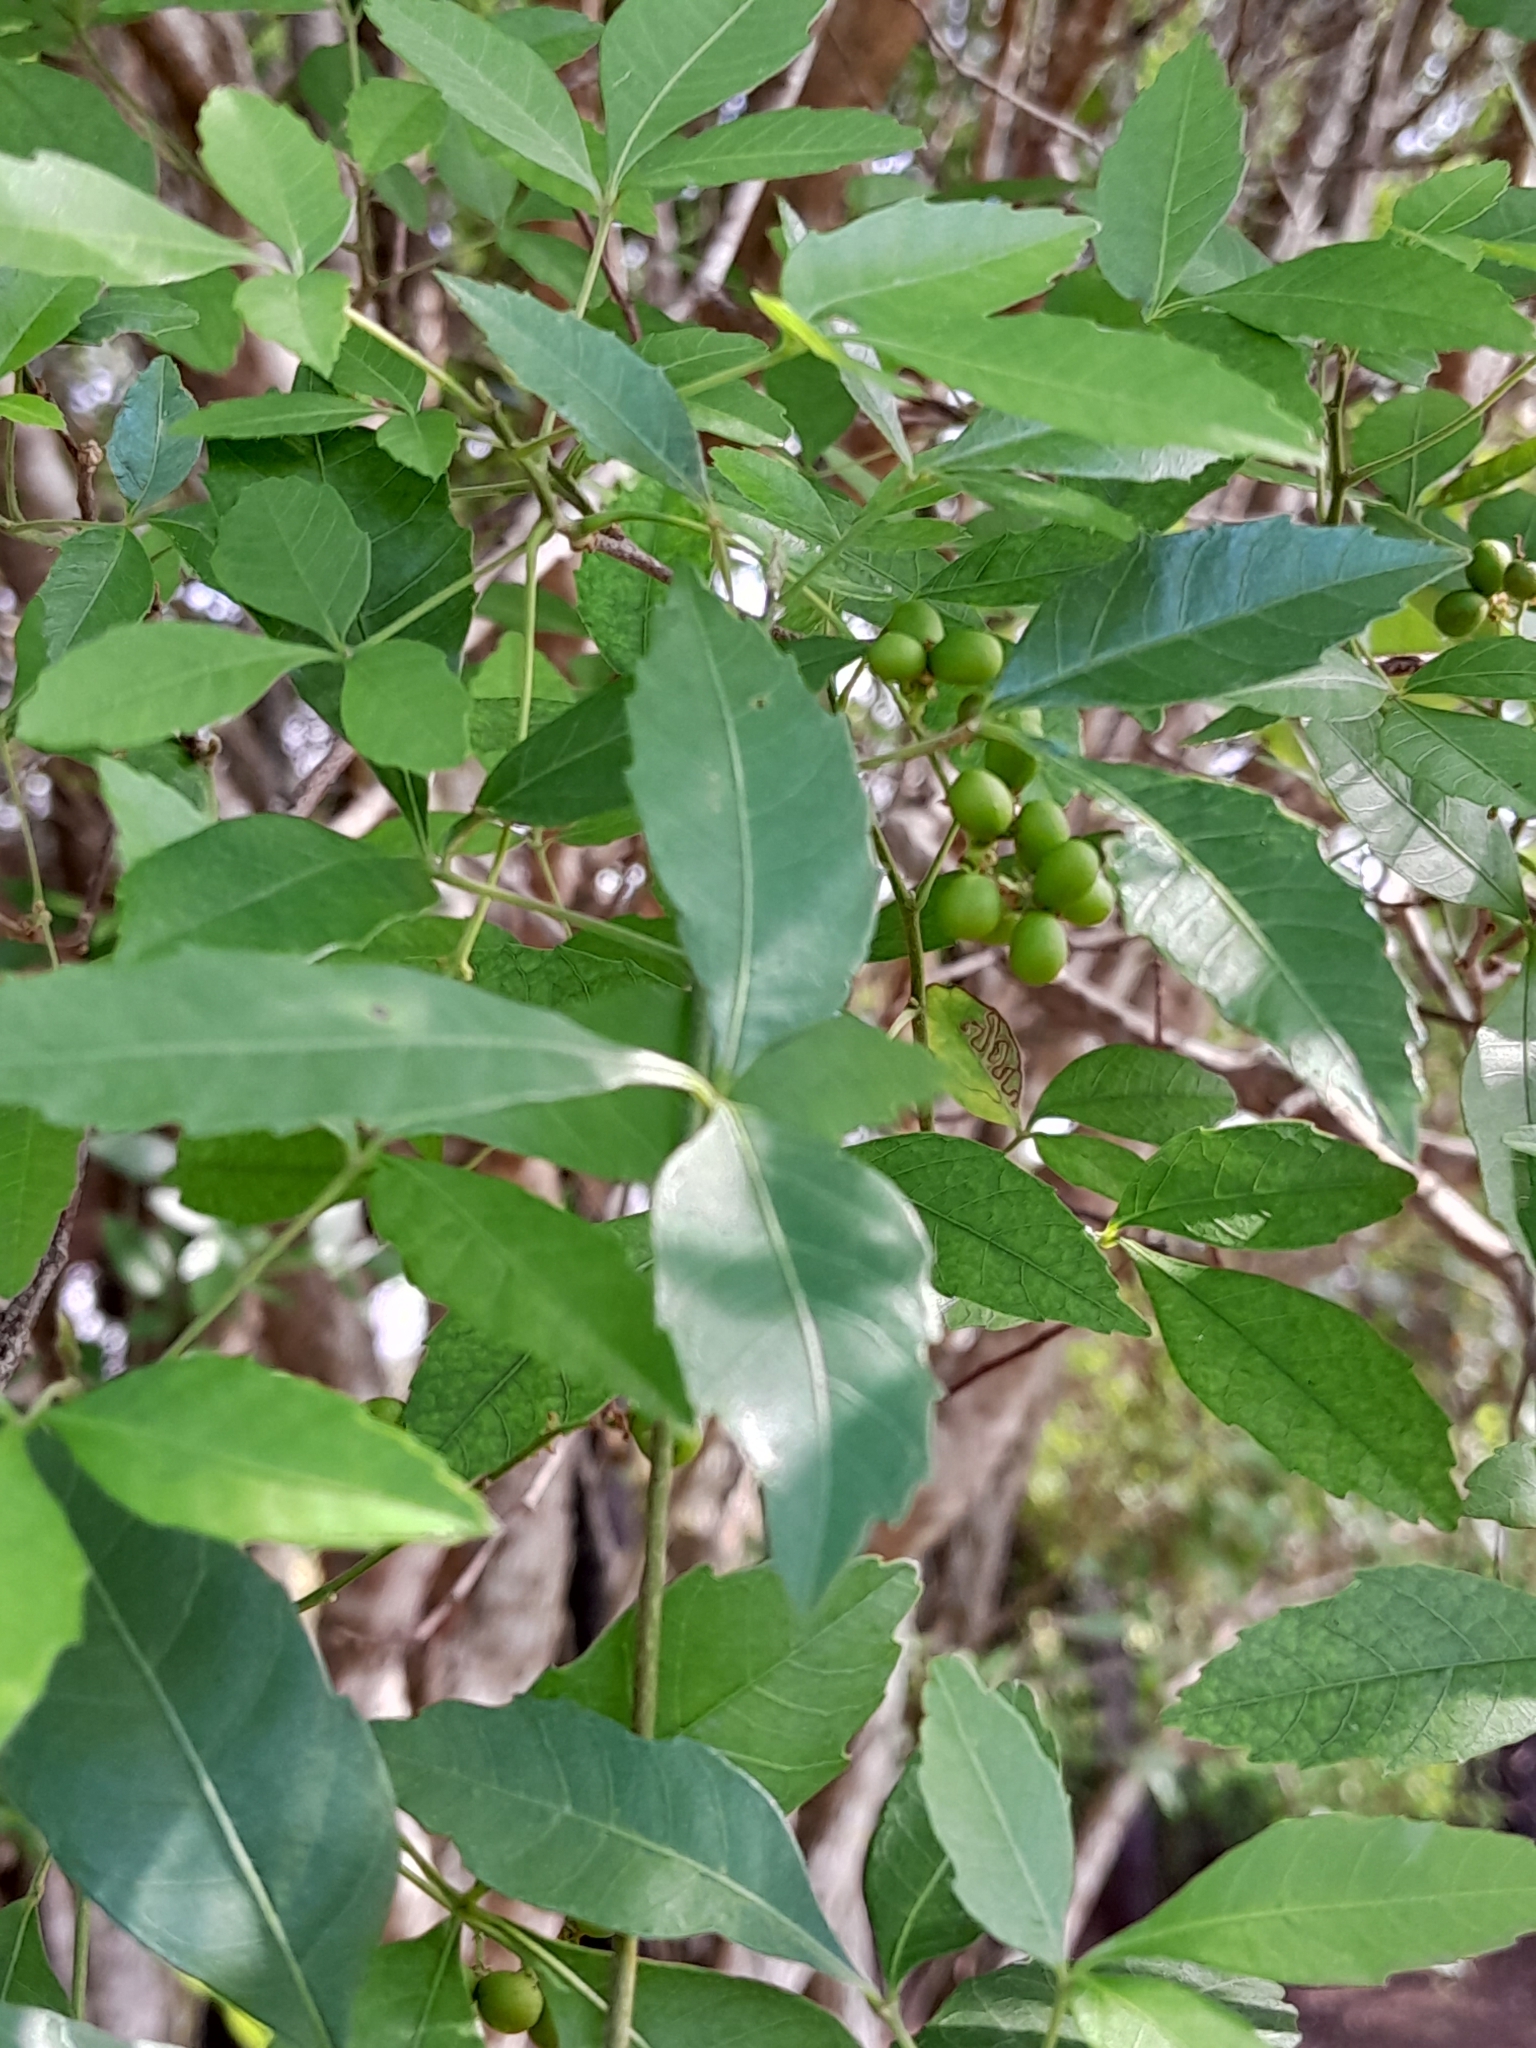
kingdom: Plantae
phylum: Tracheophyta
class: Magnoliopsida
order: Sapindales
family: Sapindaceae
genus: Allophylus
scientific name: Allophylus edulis
